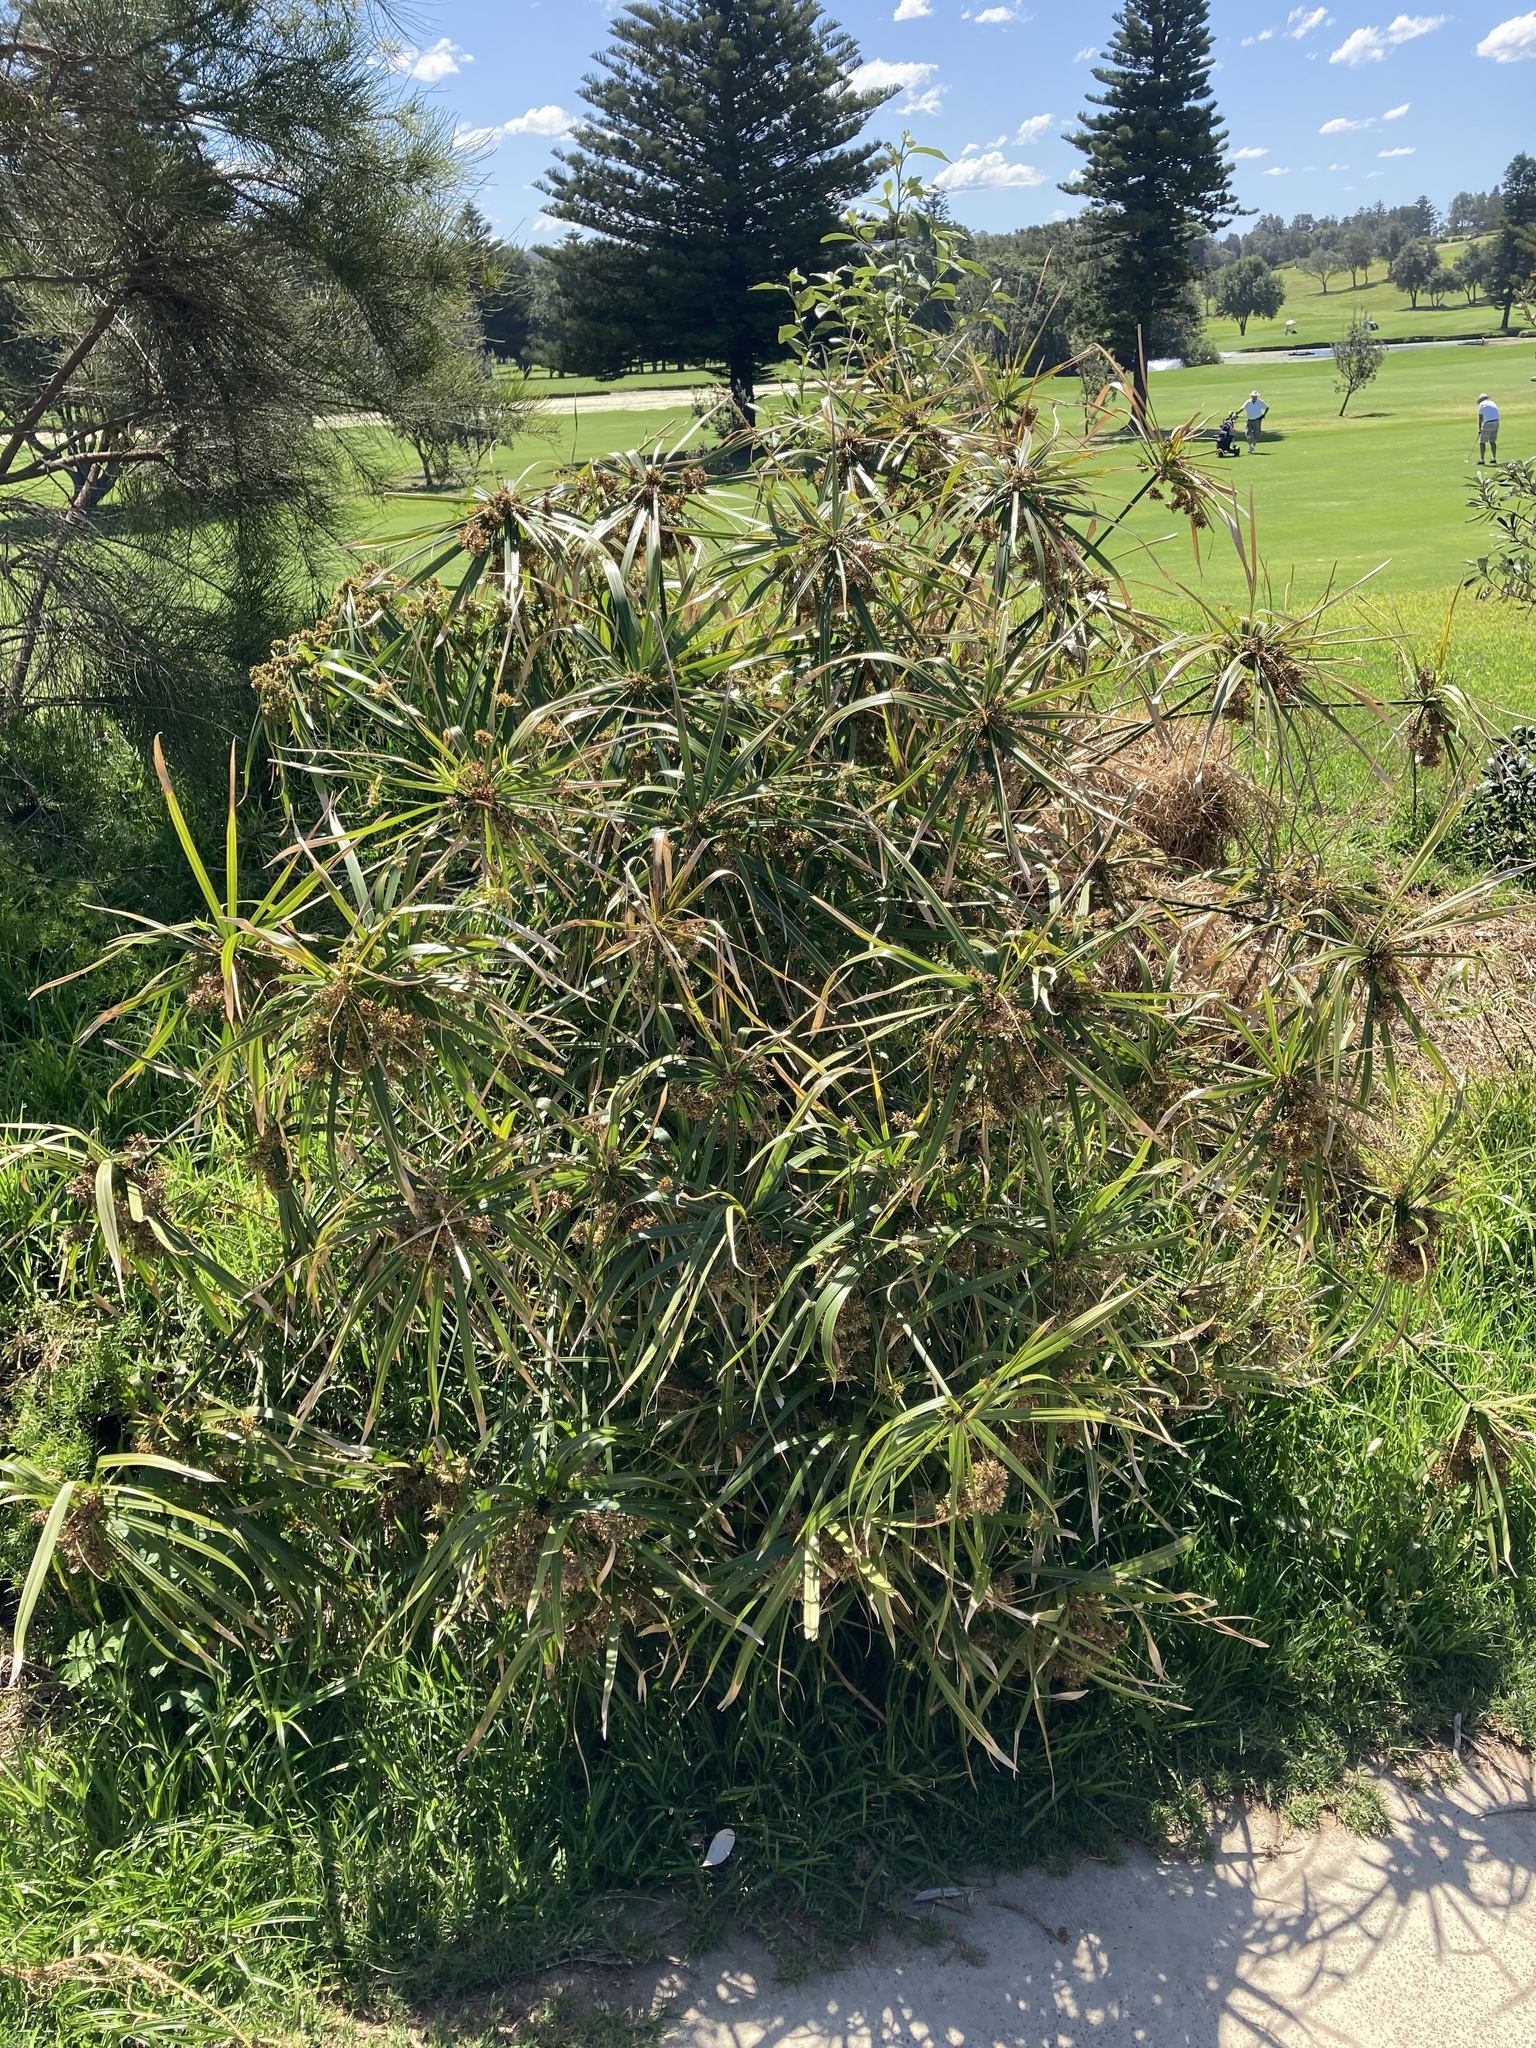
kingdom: Plantae
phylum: Tracheophyta
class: Liliopsida
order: Poales
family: Cyperaceae
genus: Cyperus
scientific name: Cyperus alternifolius
